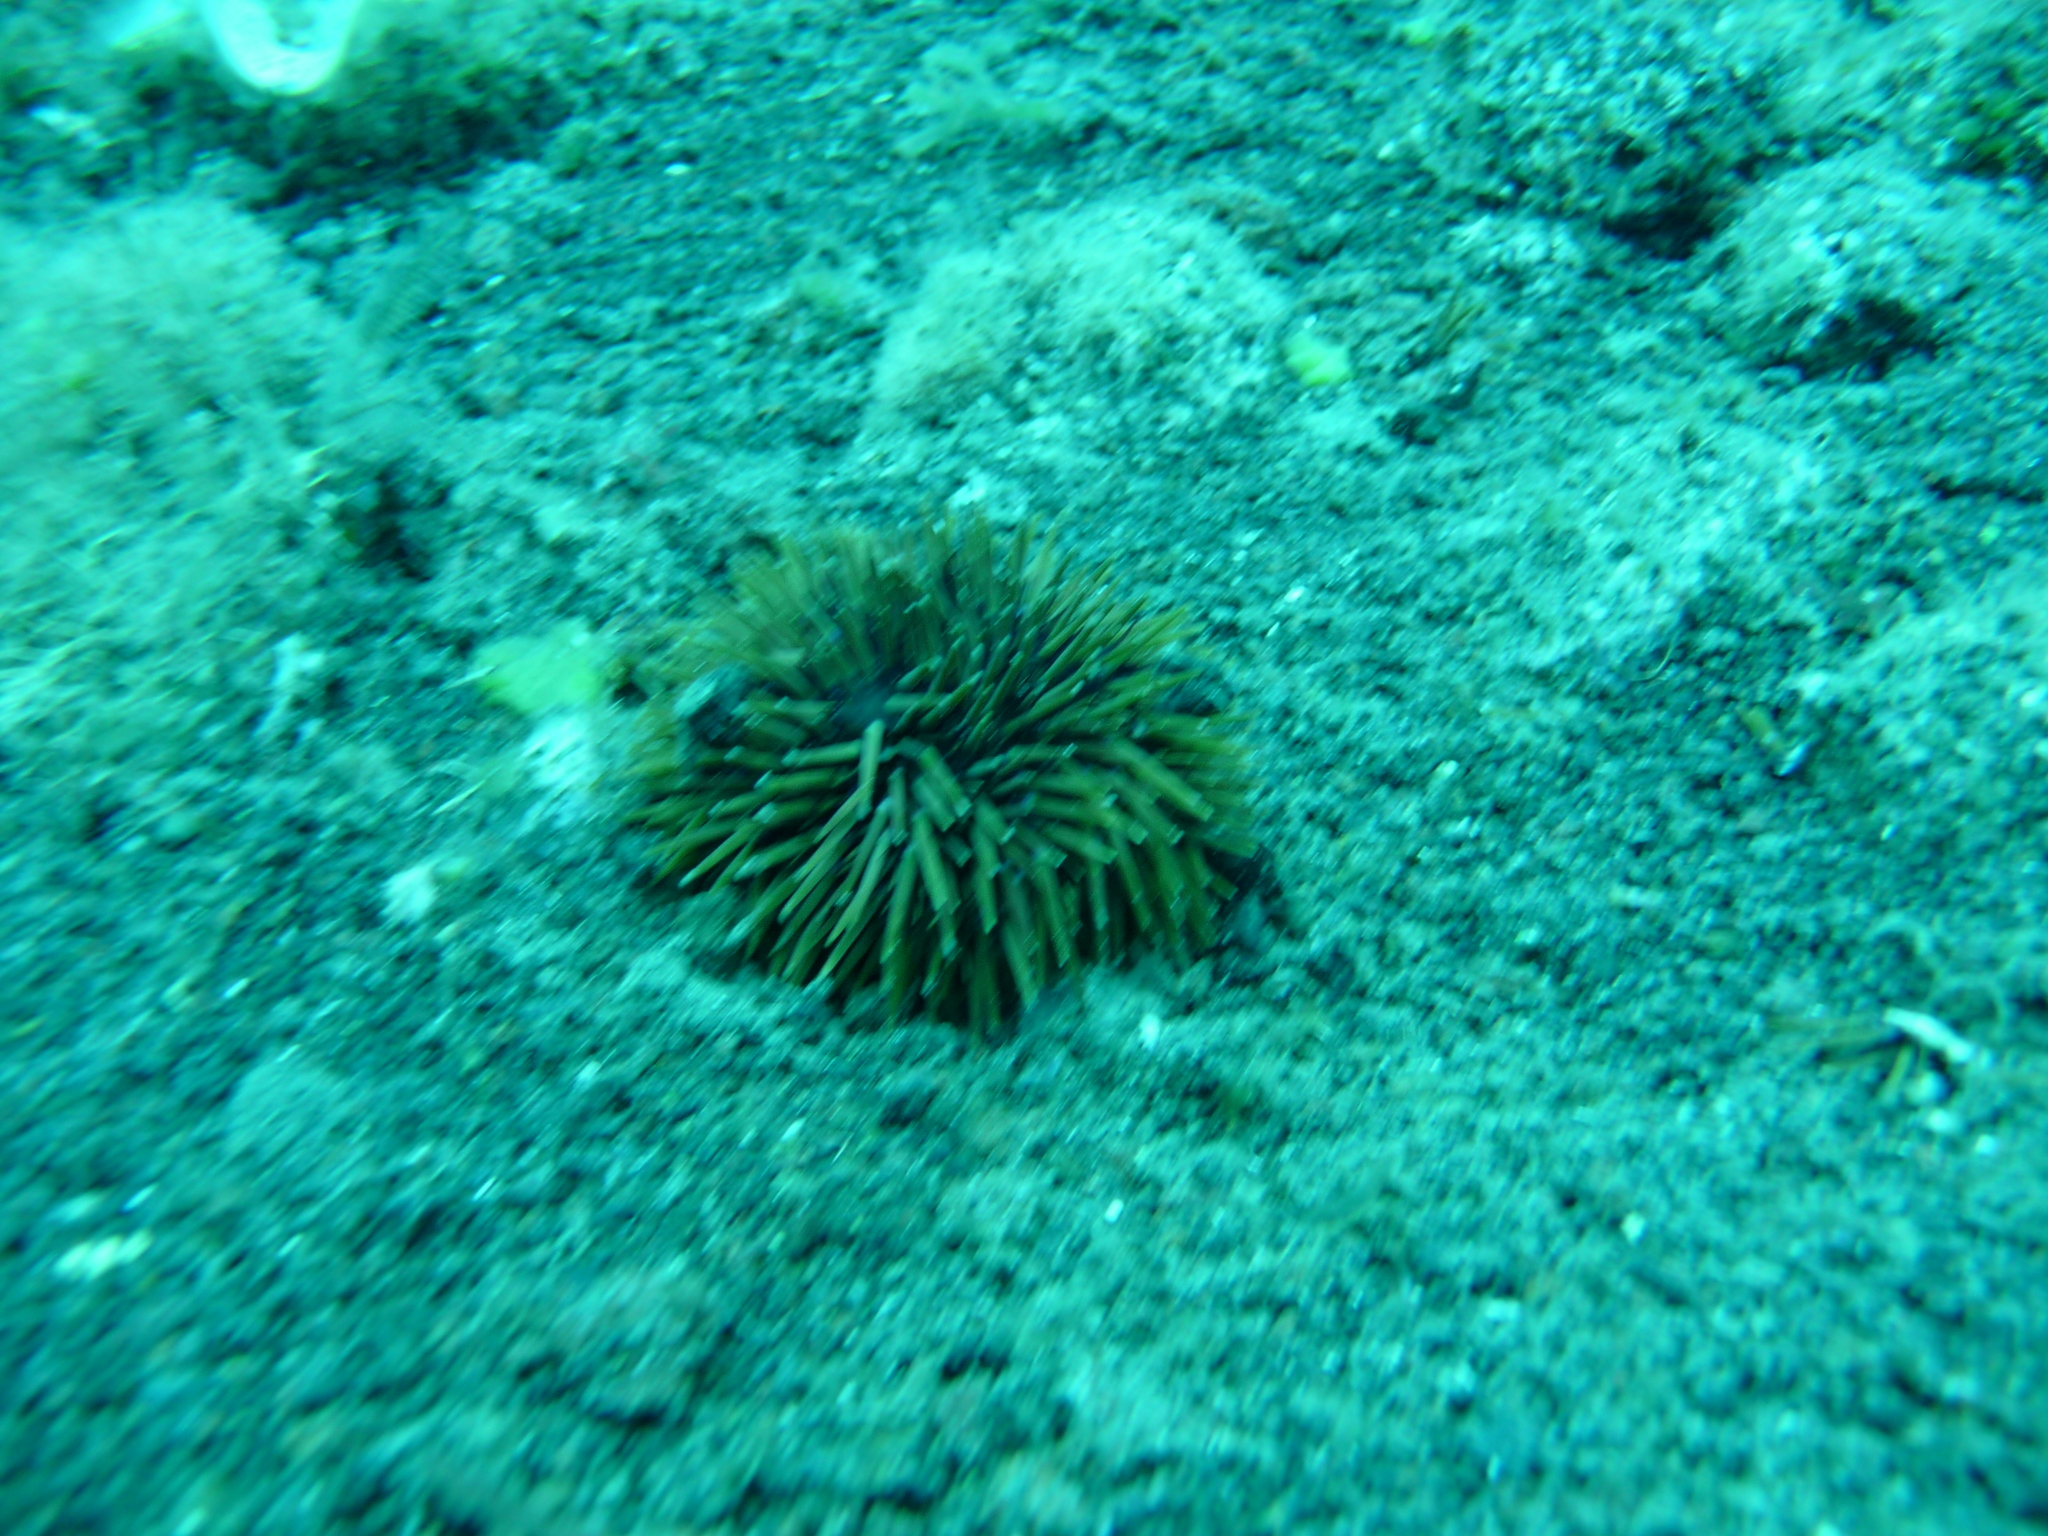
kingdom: Animalia
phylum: Echinodermata
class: Echinoidea
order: Camarodonta
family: Toxopneustidae
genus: Sphaerechinus
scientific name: Sphaerechinus granularis
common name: Violet sea urchin
